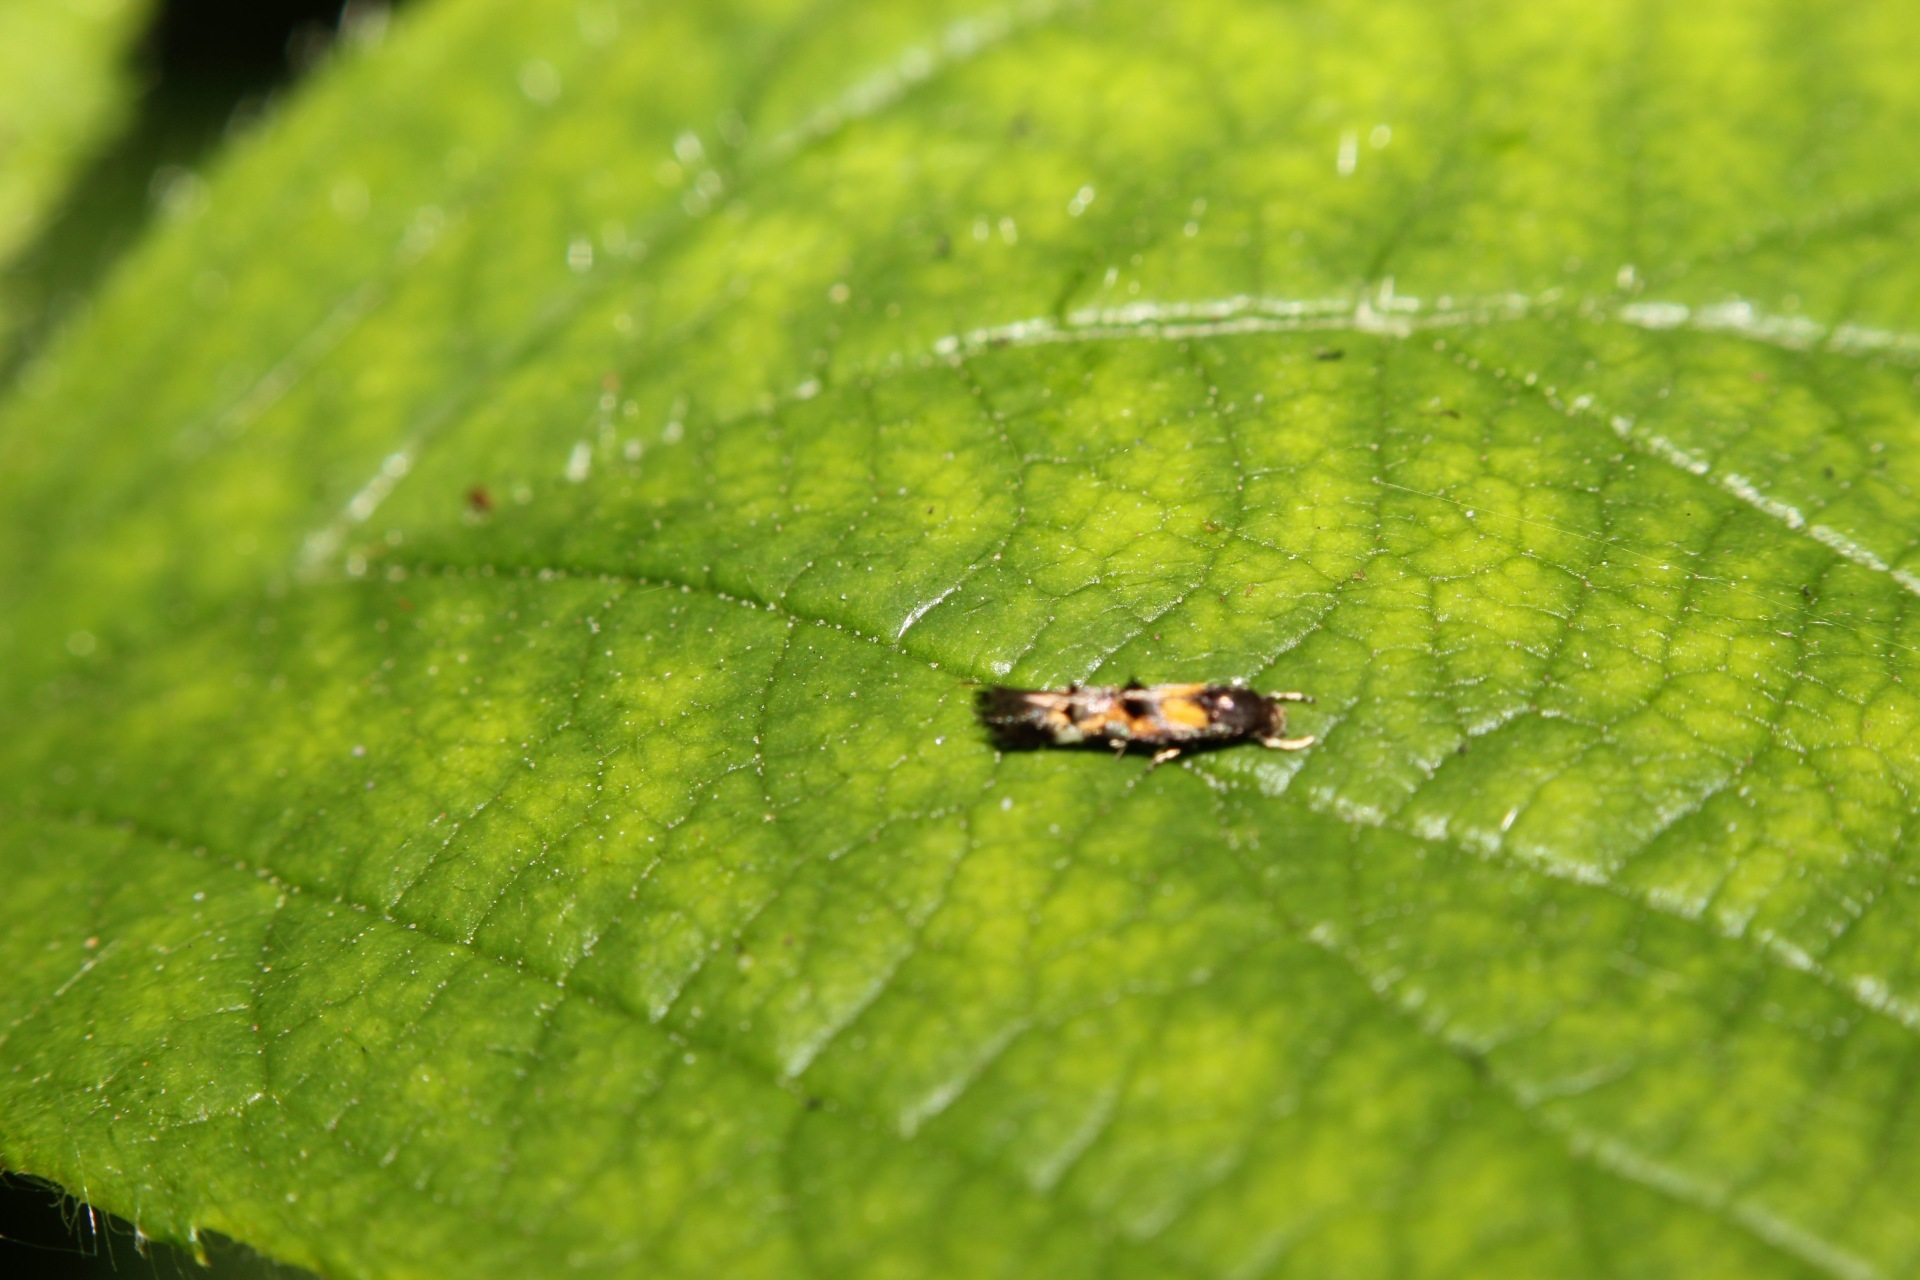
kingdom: Animalia
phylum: Arthropoda
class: Insecta
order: Lepidoptera
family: Momphidae
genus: Mompha
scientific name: Mompha raschkiella
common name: Little cosmet
